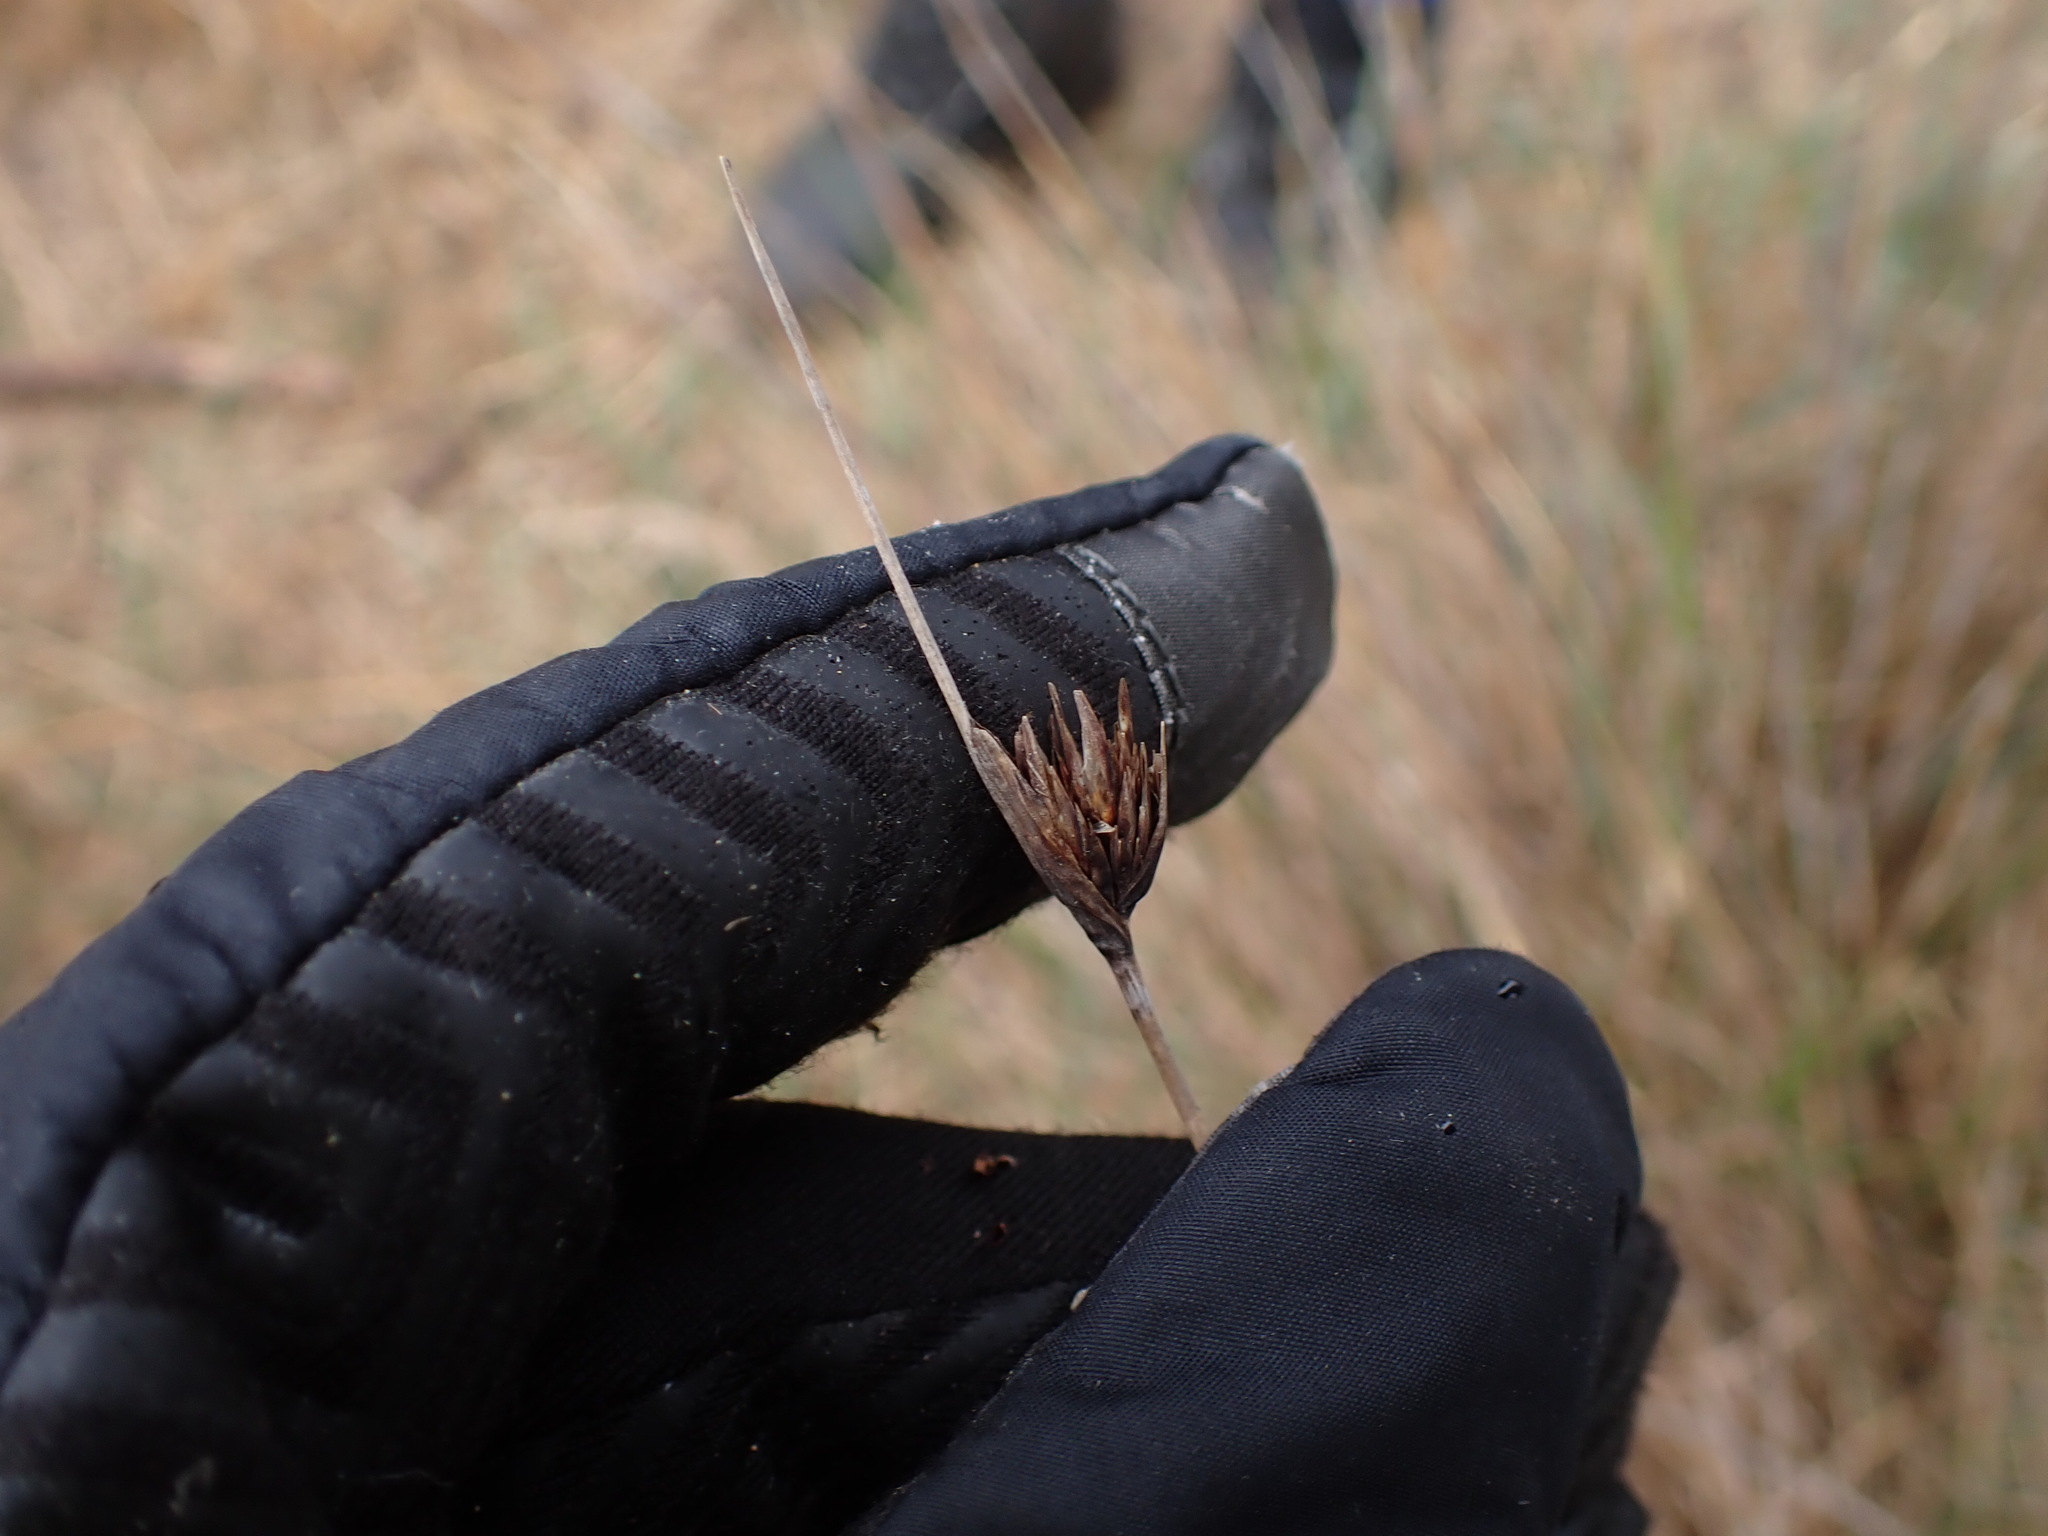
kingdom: Plantae
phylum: Tracheophyta
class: Liliopsida
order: Poales
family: Cyperaceae
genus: Schoenus
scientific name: Schoenus nigricans
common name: Black bog-rush
